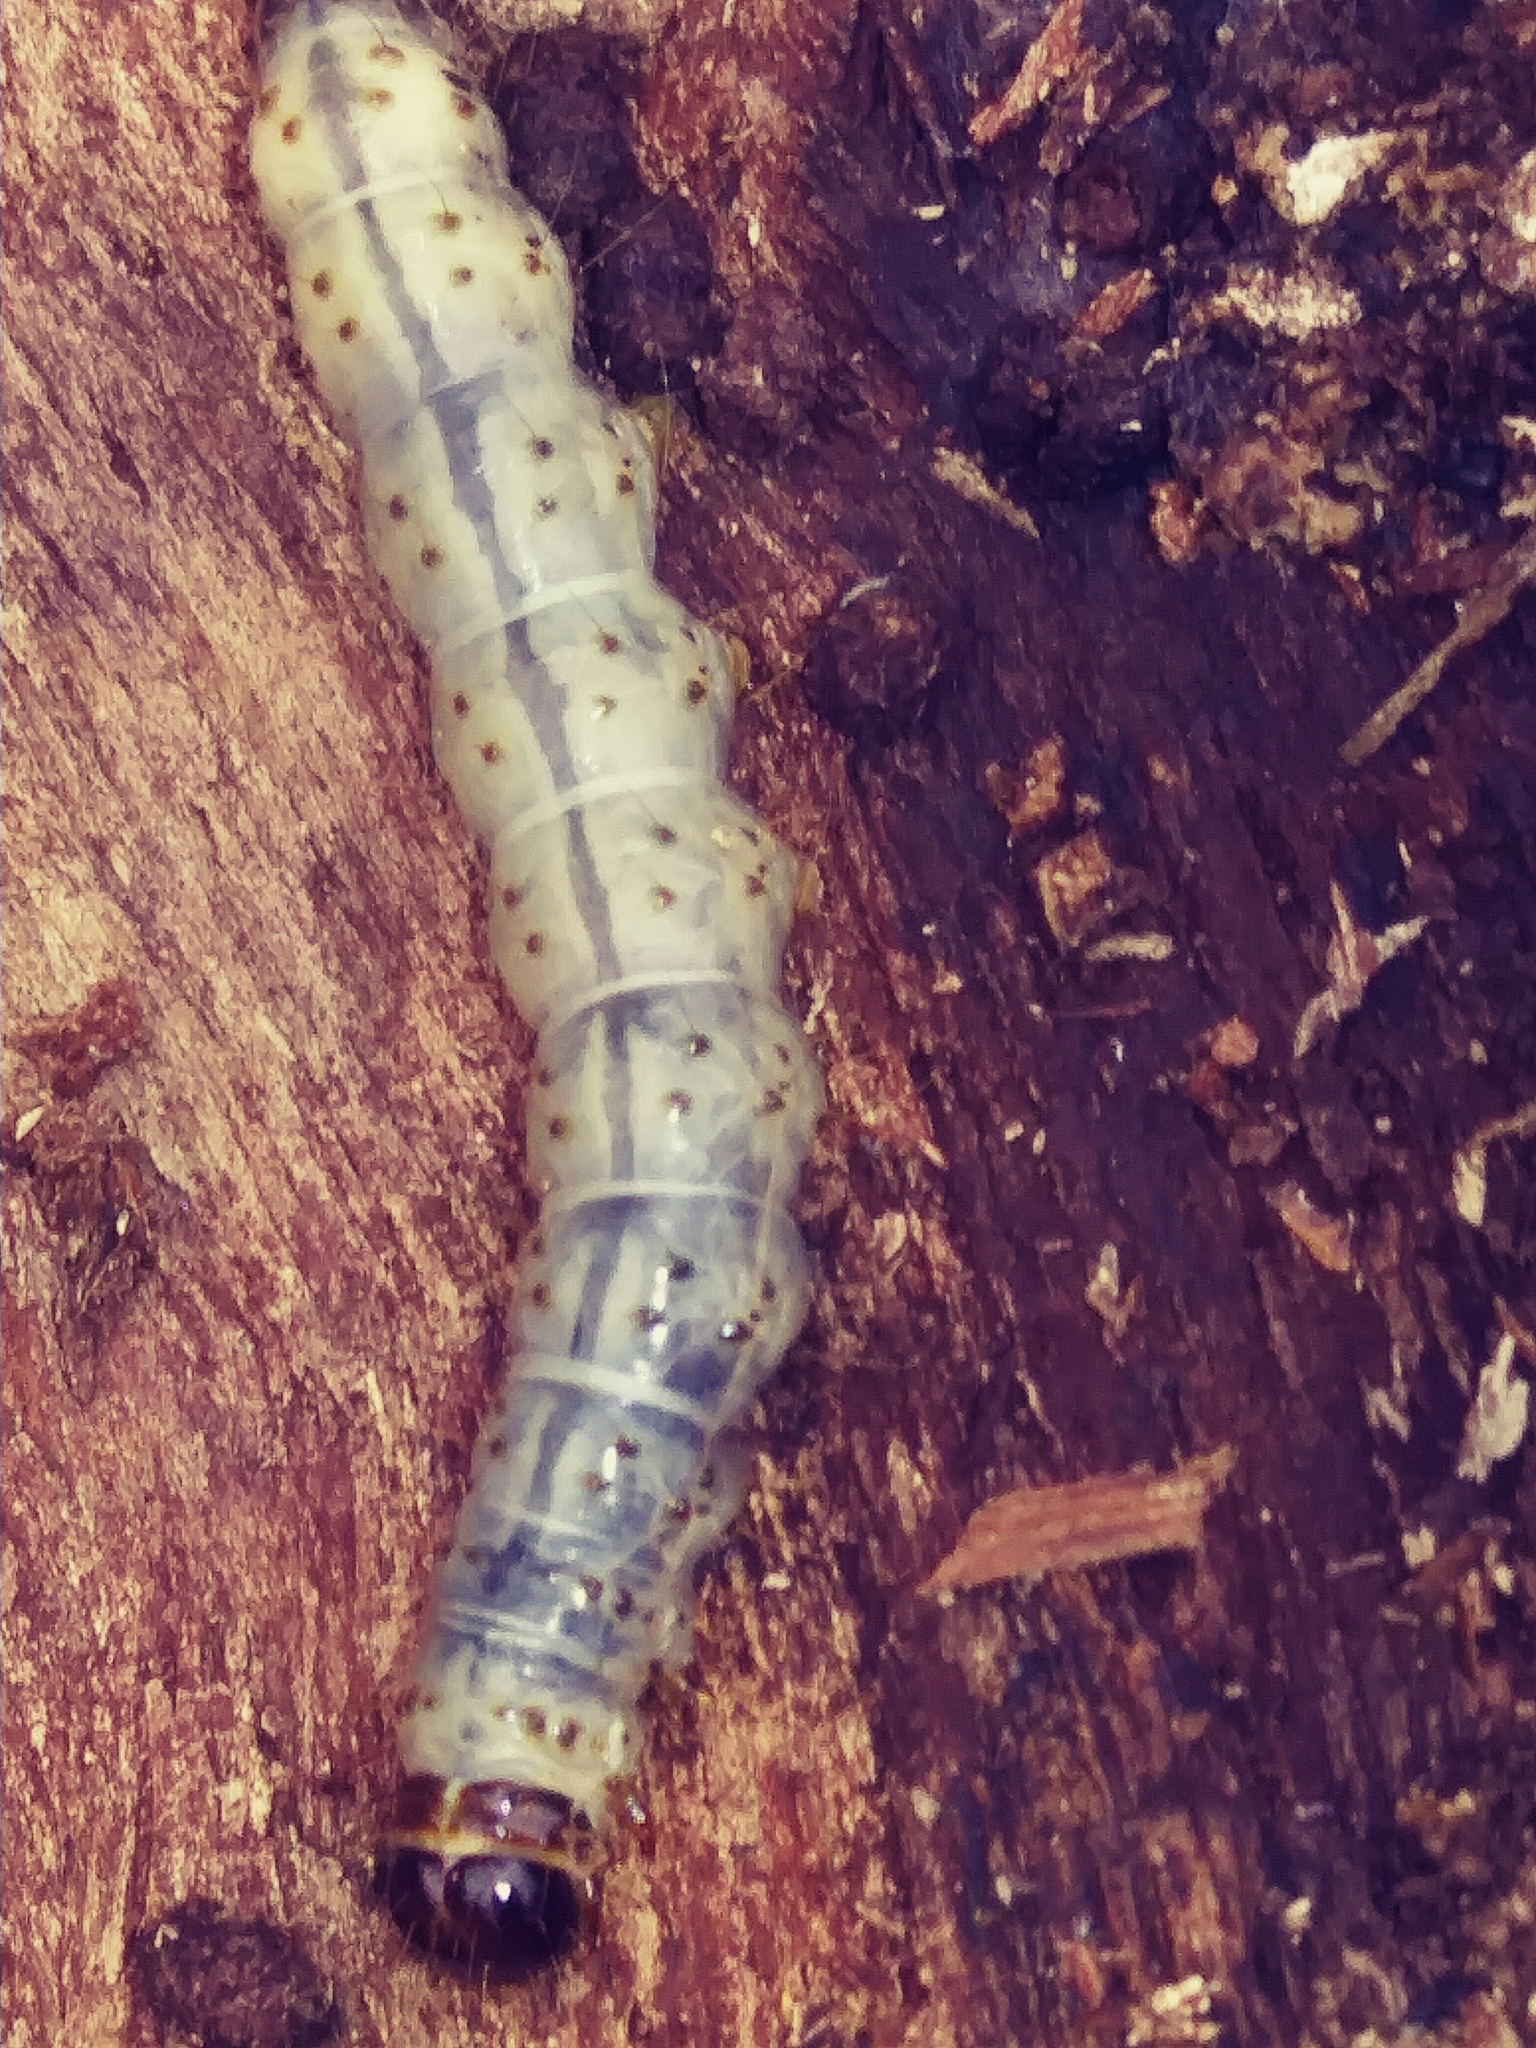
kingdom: Animalia
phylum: Arthropoda
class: Insecta
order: Lepidoptera
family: Erebidae
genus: Scolecocampa
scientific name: Scolecocampa liburna
